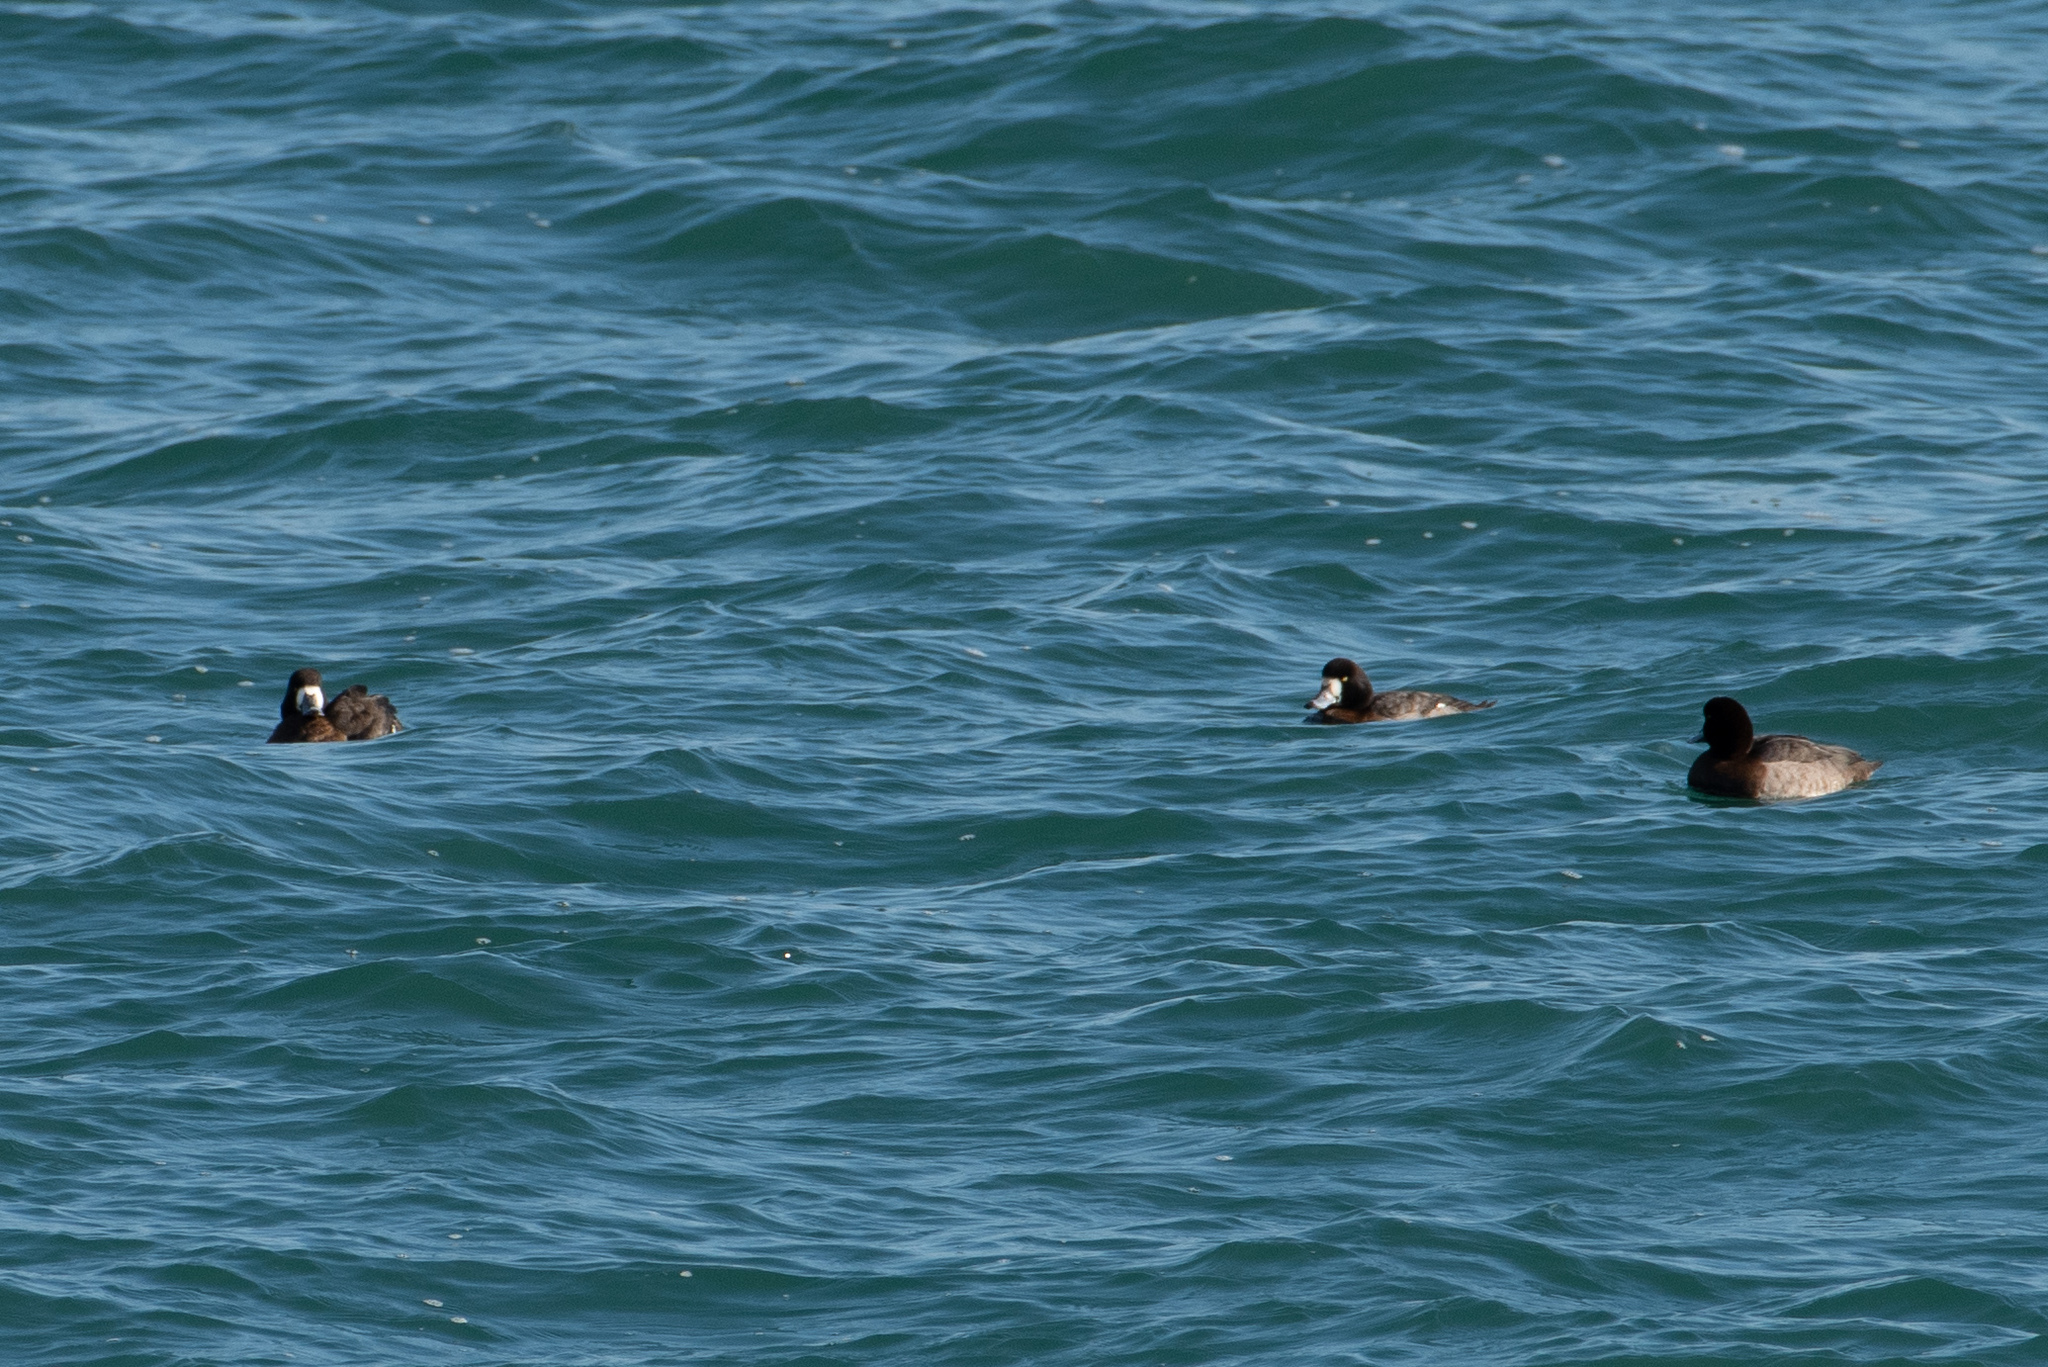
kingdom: Animalia
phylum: Chordata
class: Aves
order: Anseriformes
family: Anatidae
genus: Aythya
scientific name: Aythya marila
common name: Greater scaup
